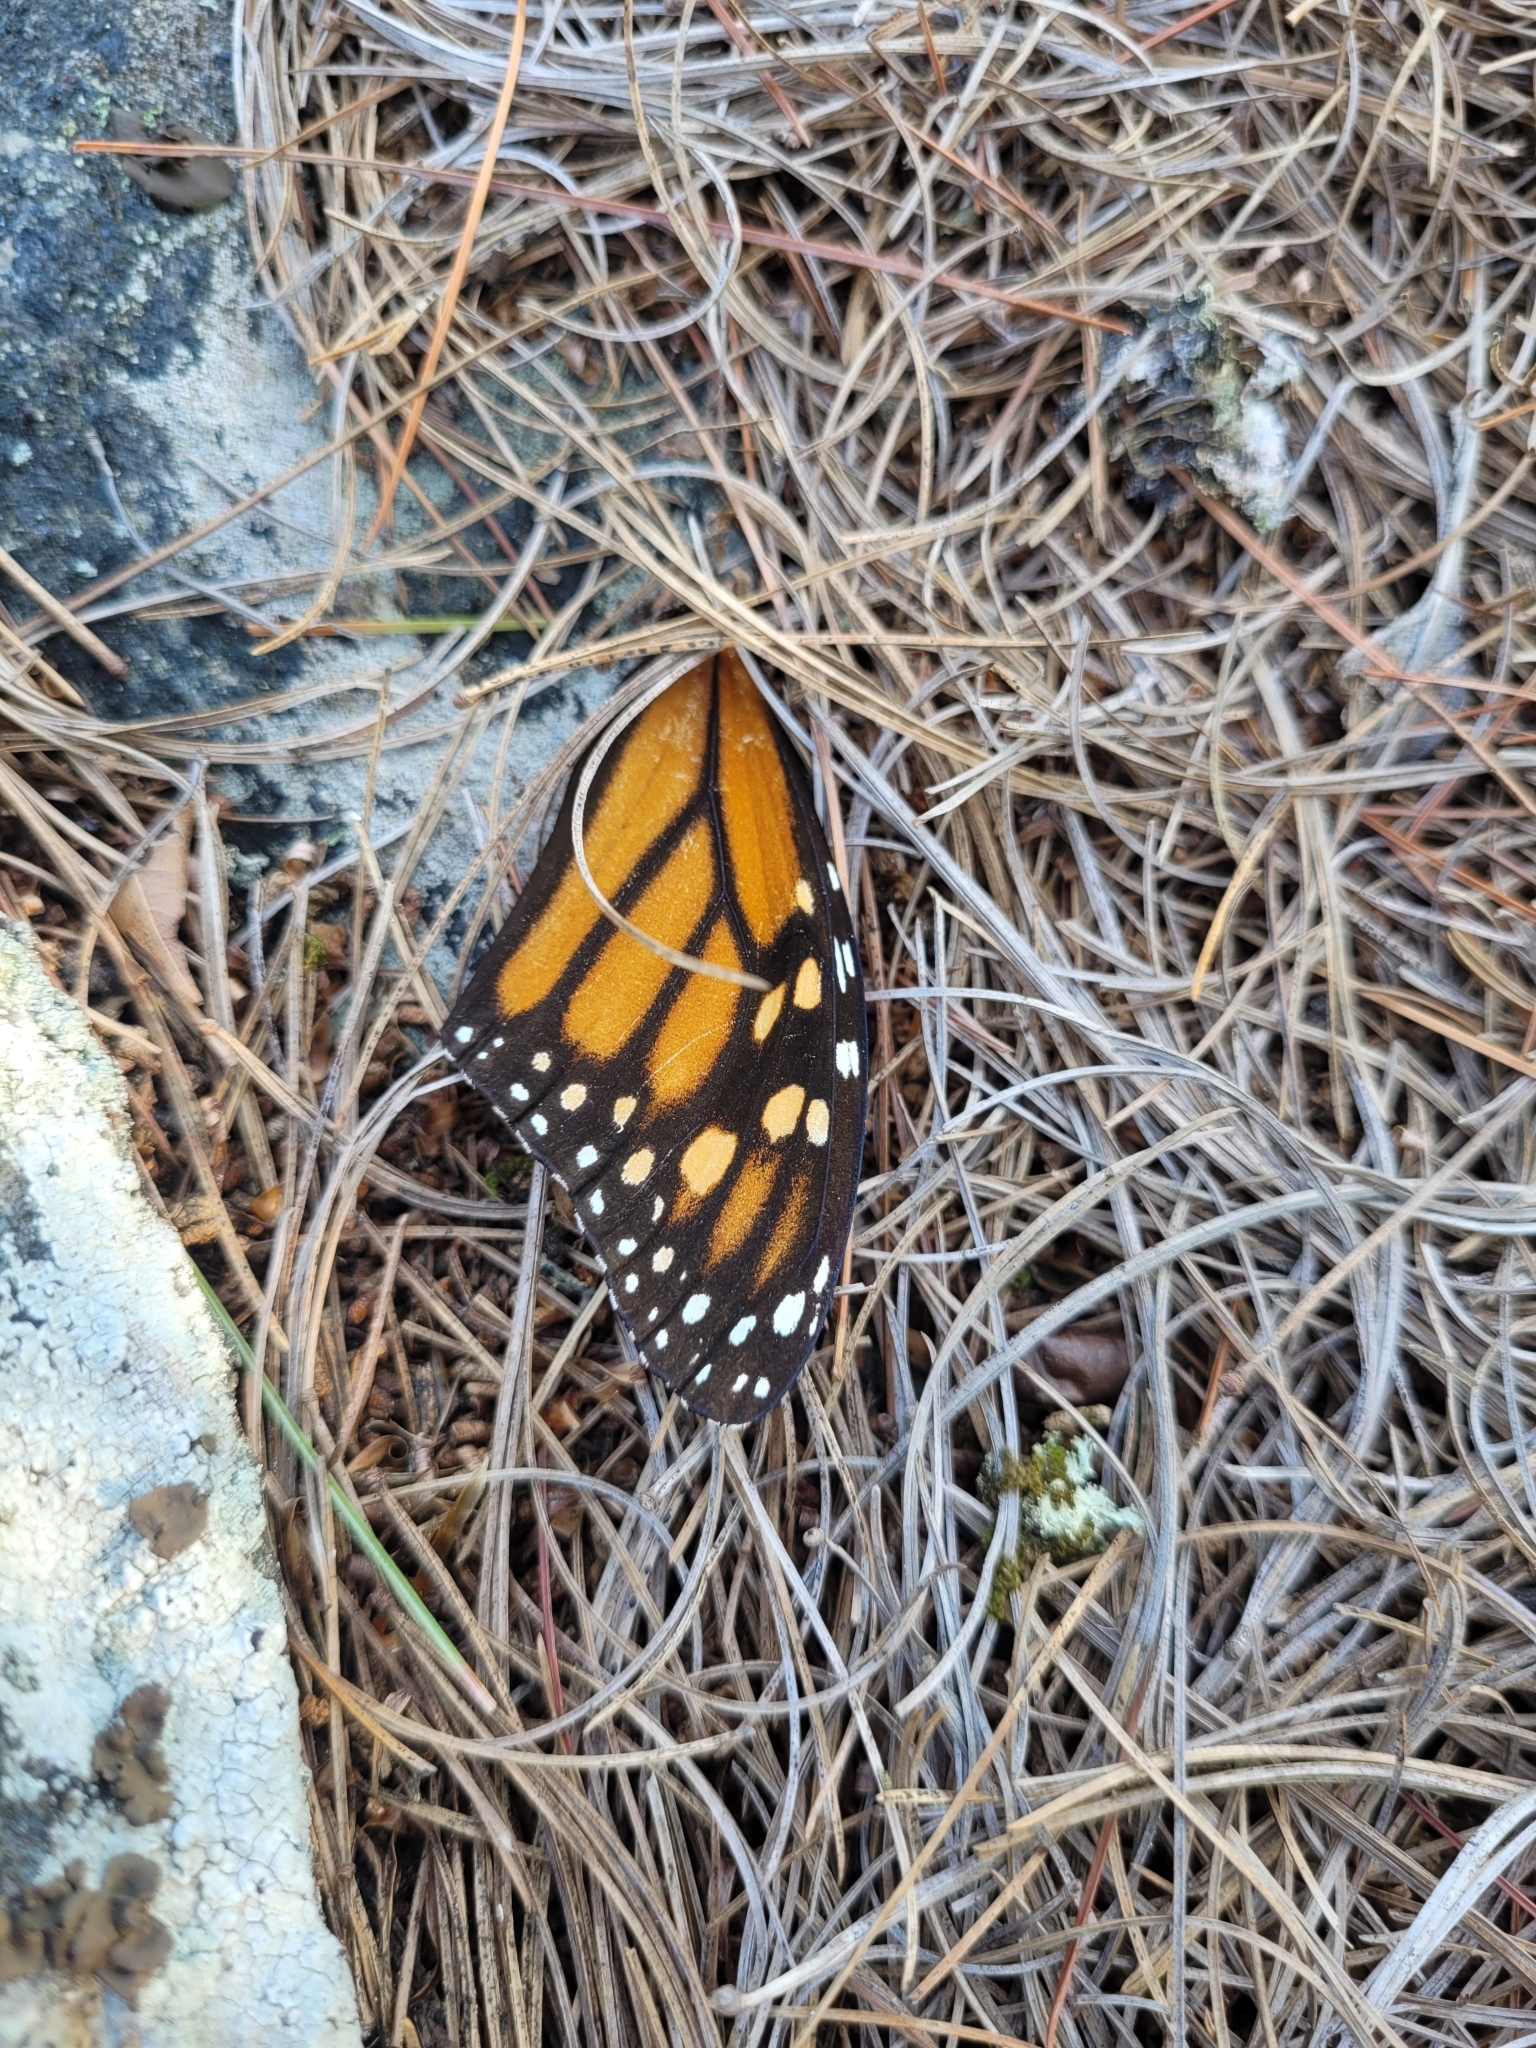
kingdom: Animalia
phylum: Arthropoda
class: Insecta
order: Lepidoptera
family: Nymphalidae
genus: Danaus
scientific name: Danaus plexippus
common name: Monarch
